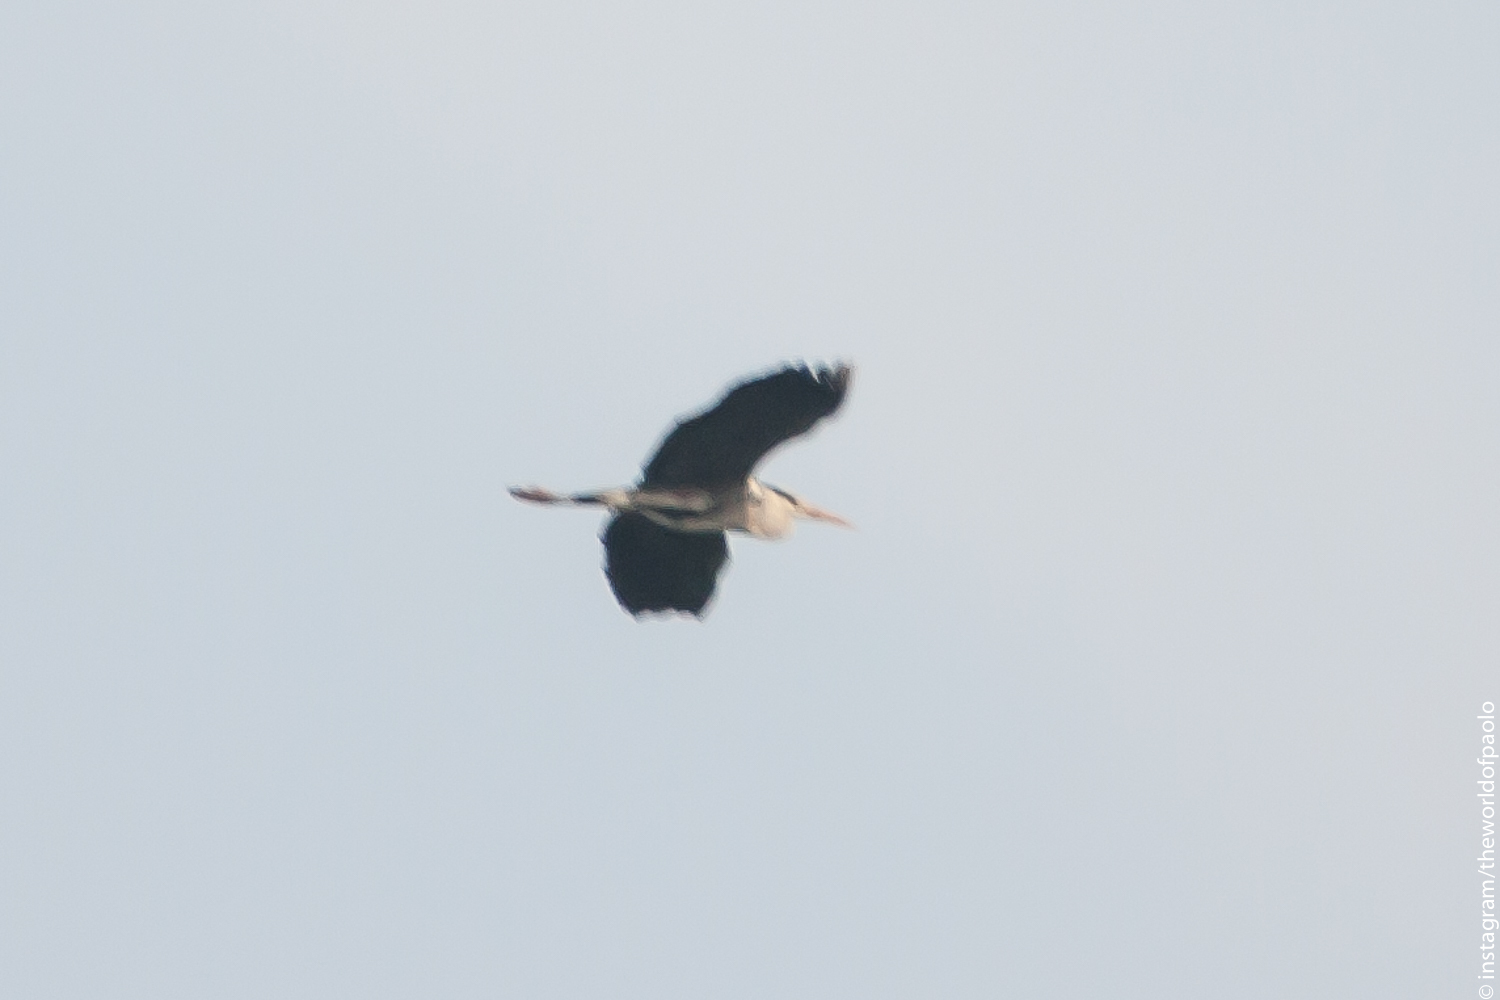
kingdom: Animalia
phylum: Chordata
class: Aves
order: Pelecaniformes
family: Ardeidae
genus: Ardea
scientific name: Ardea cinerea
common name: Grey heron
